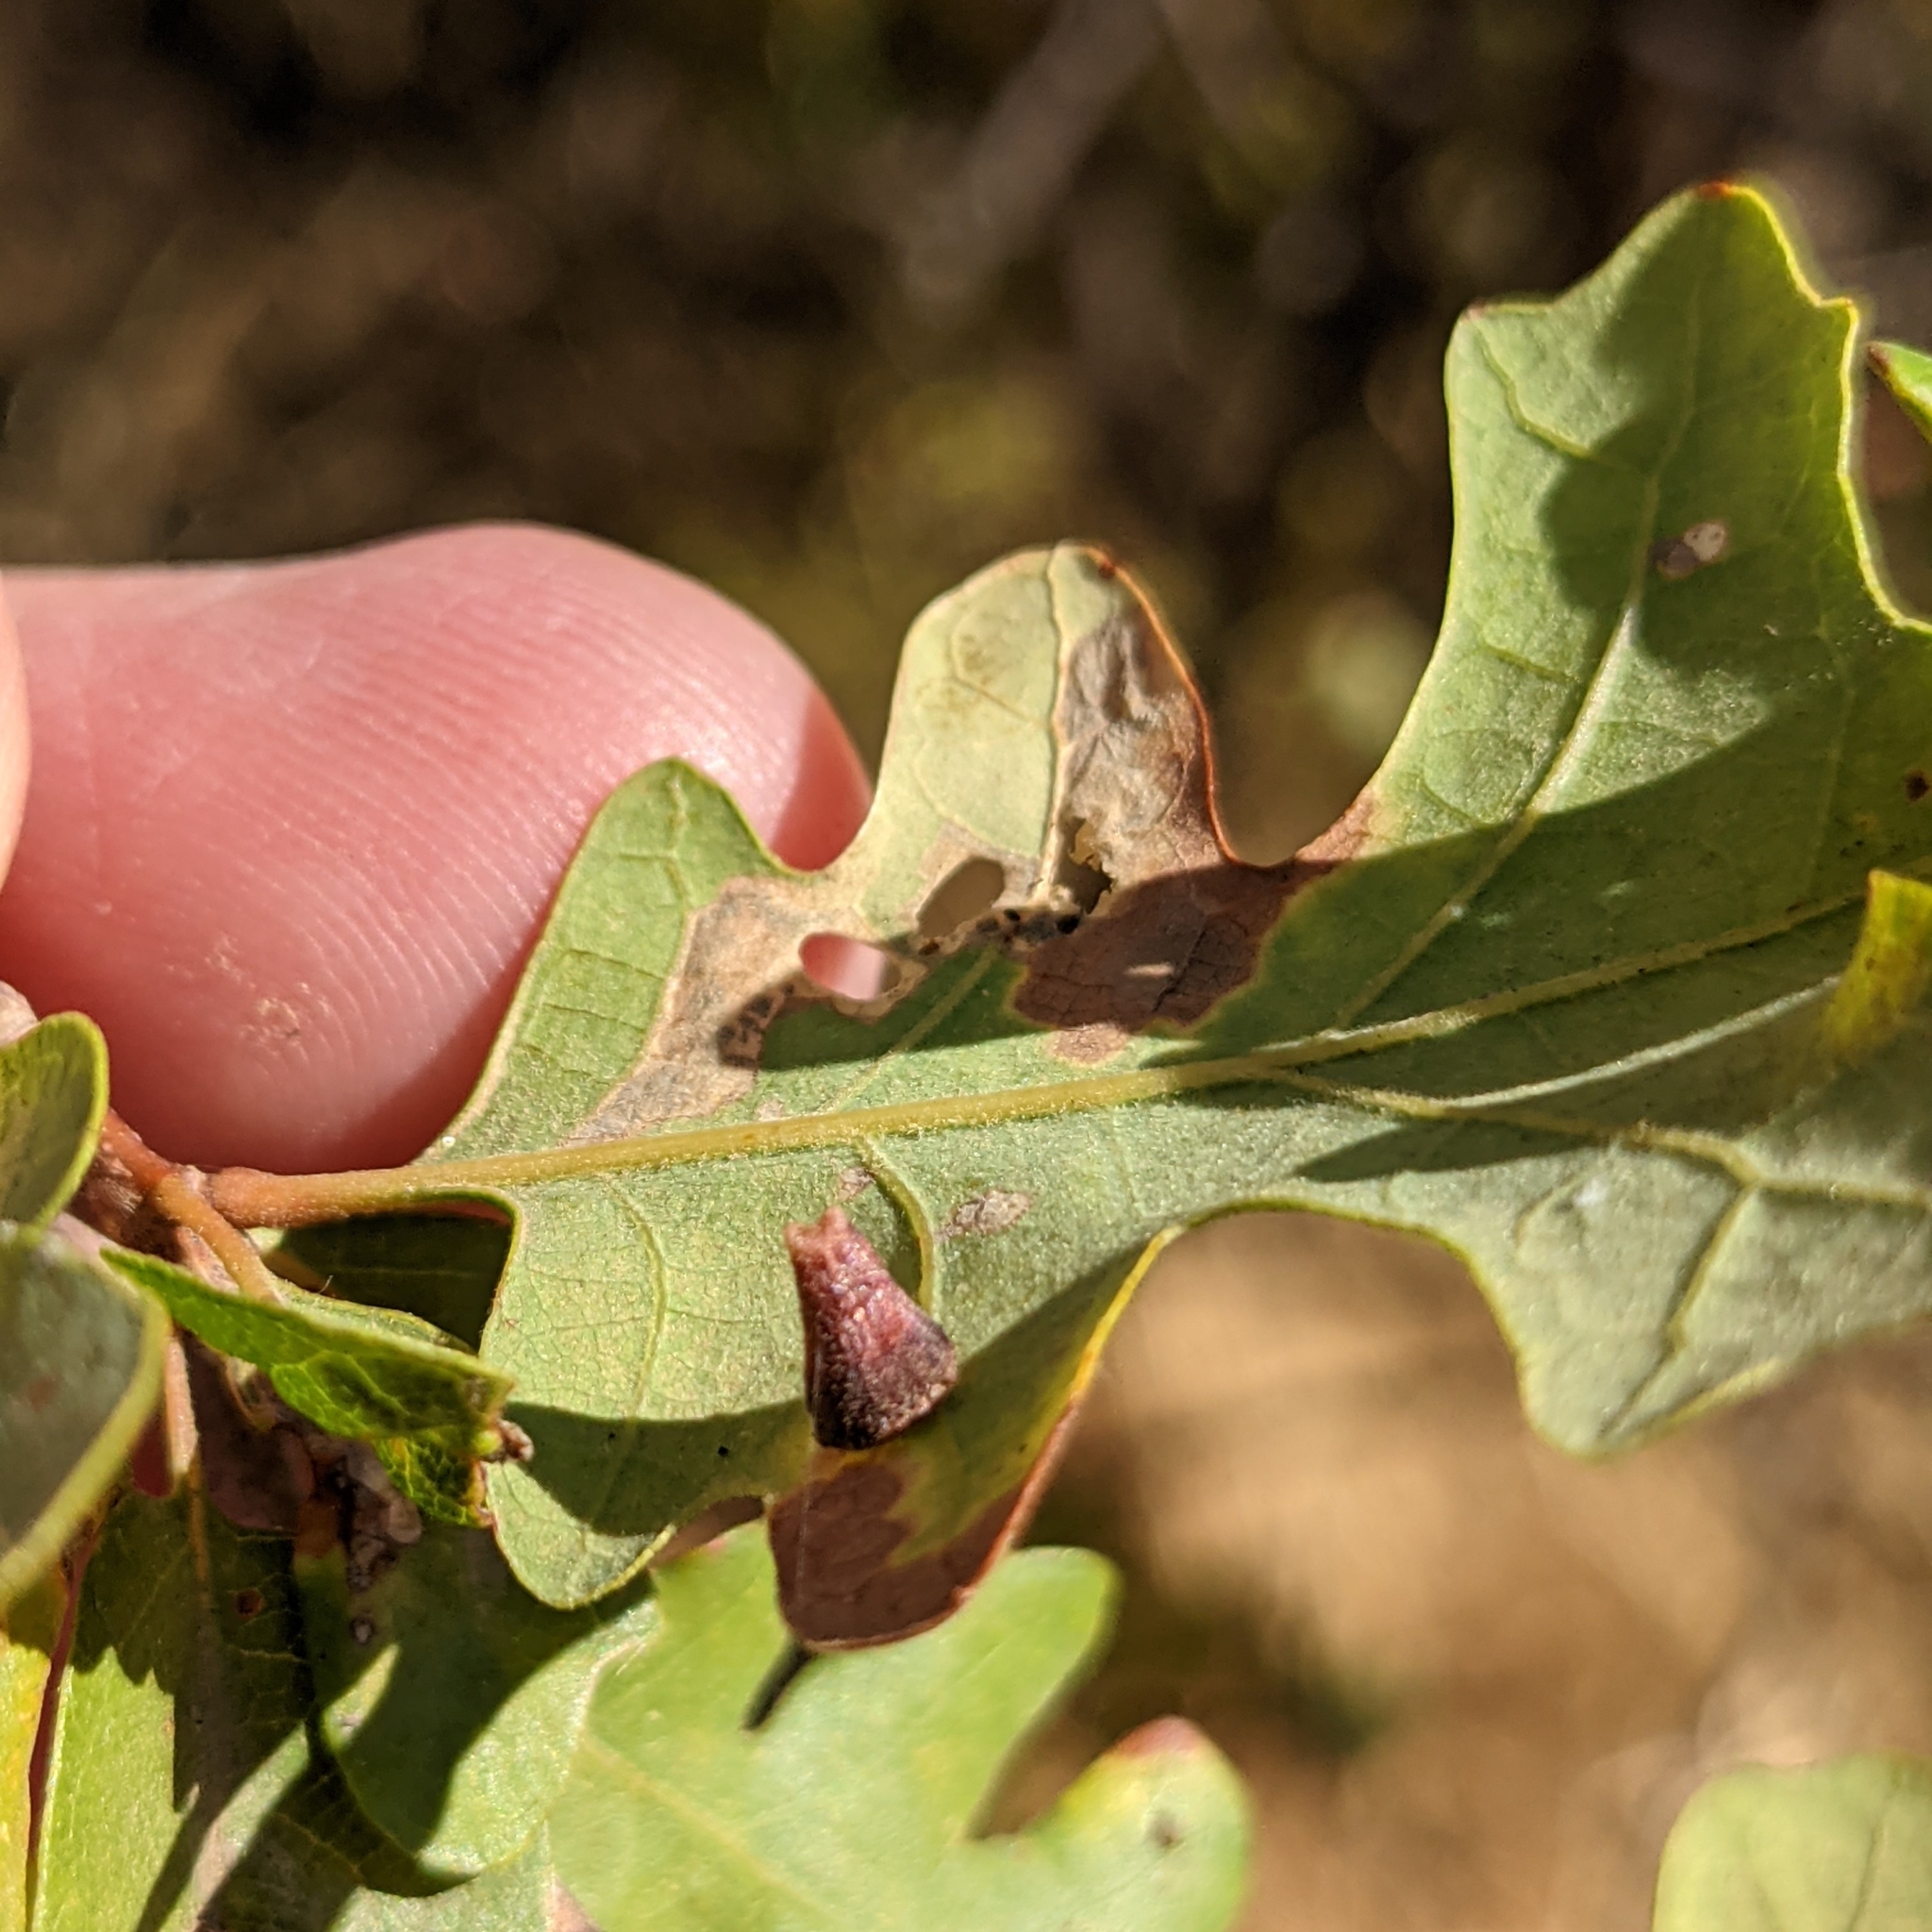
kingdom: Animalia
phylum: Arthropoda
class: Insecta
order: Hymenoptera
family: Cynipidae
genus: Andricus
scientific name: Andricus
